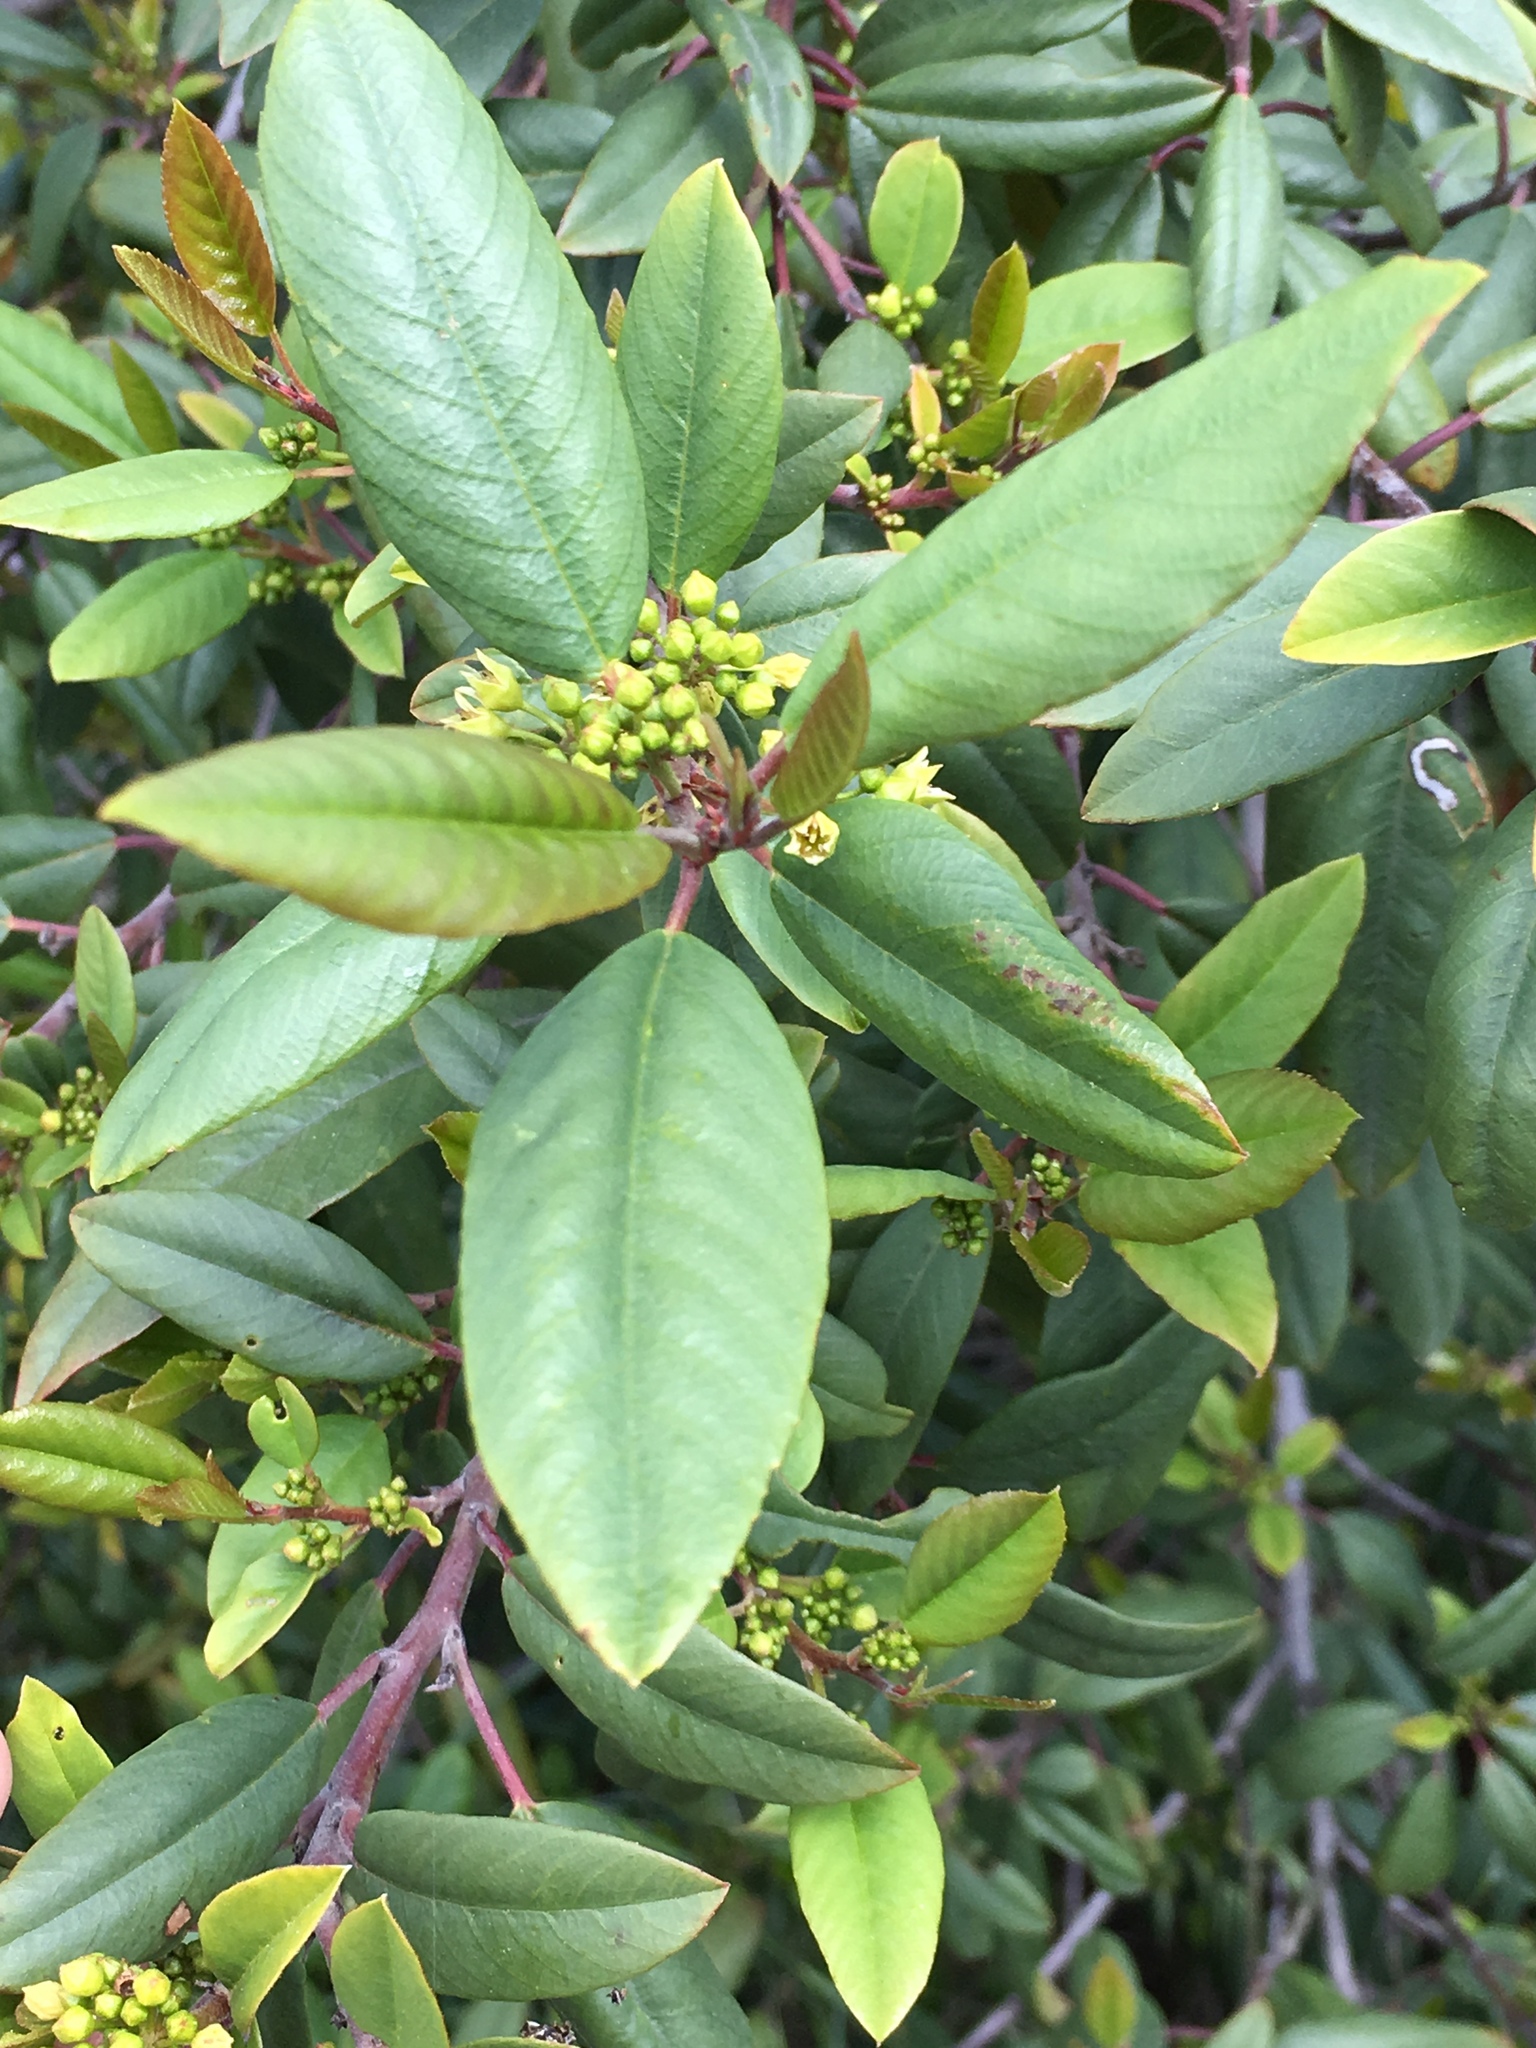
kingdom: Plantae
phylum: Tracheophyta
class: Magnoliopsida
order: Rosales
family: Rhamnaceae
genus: Frangula
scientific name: Frangula californica
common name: California buckthorn
